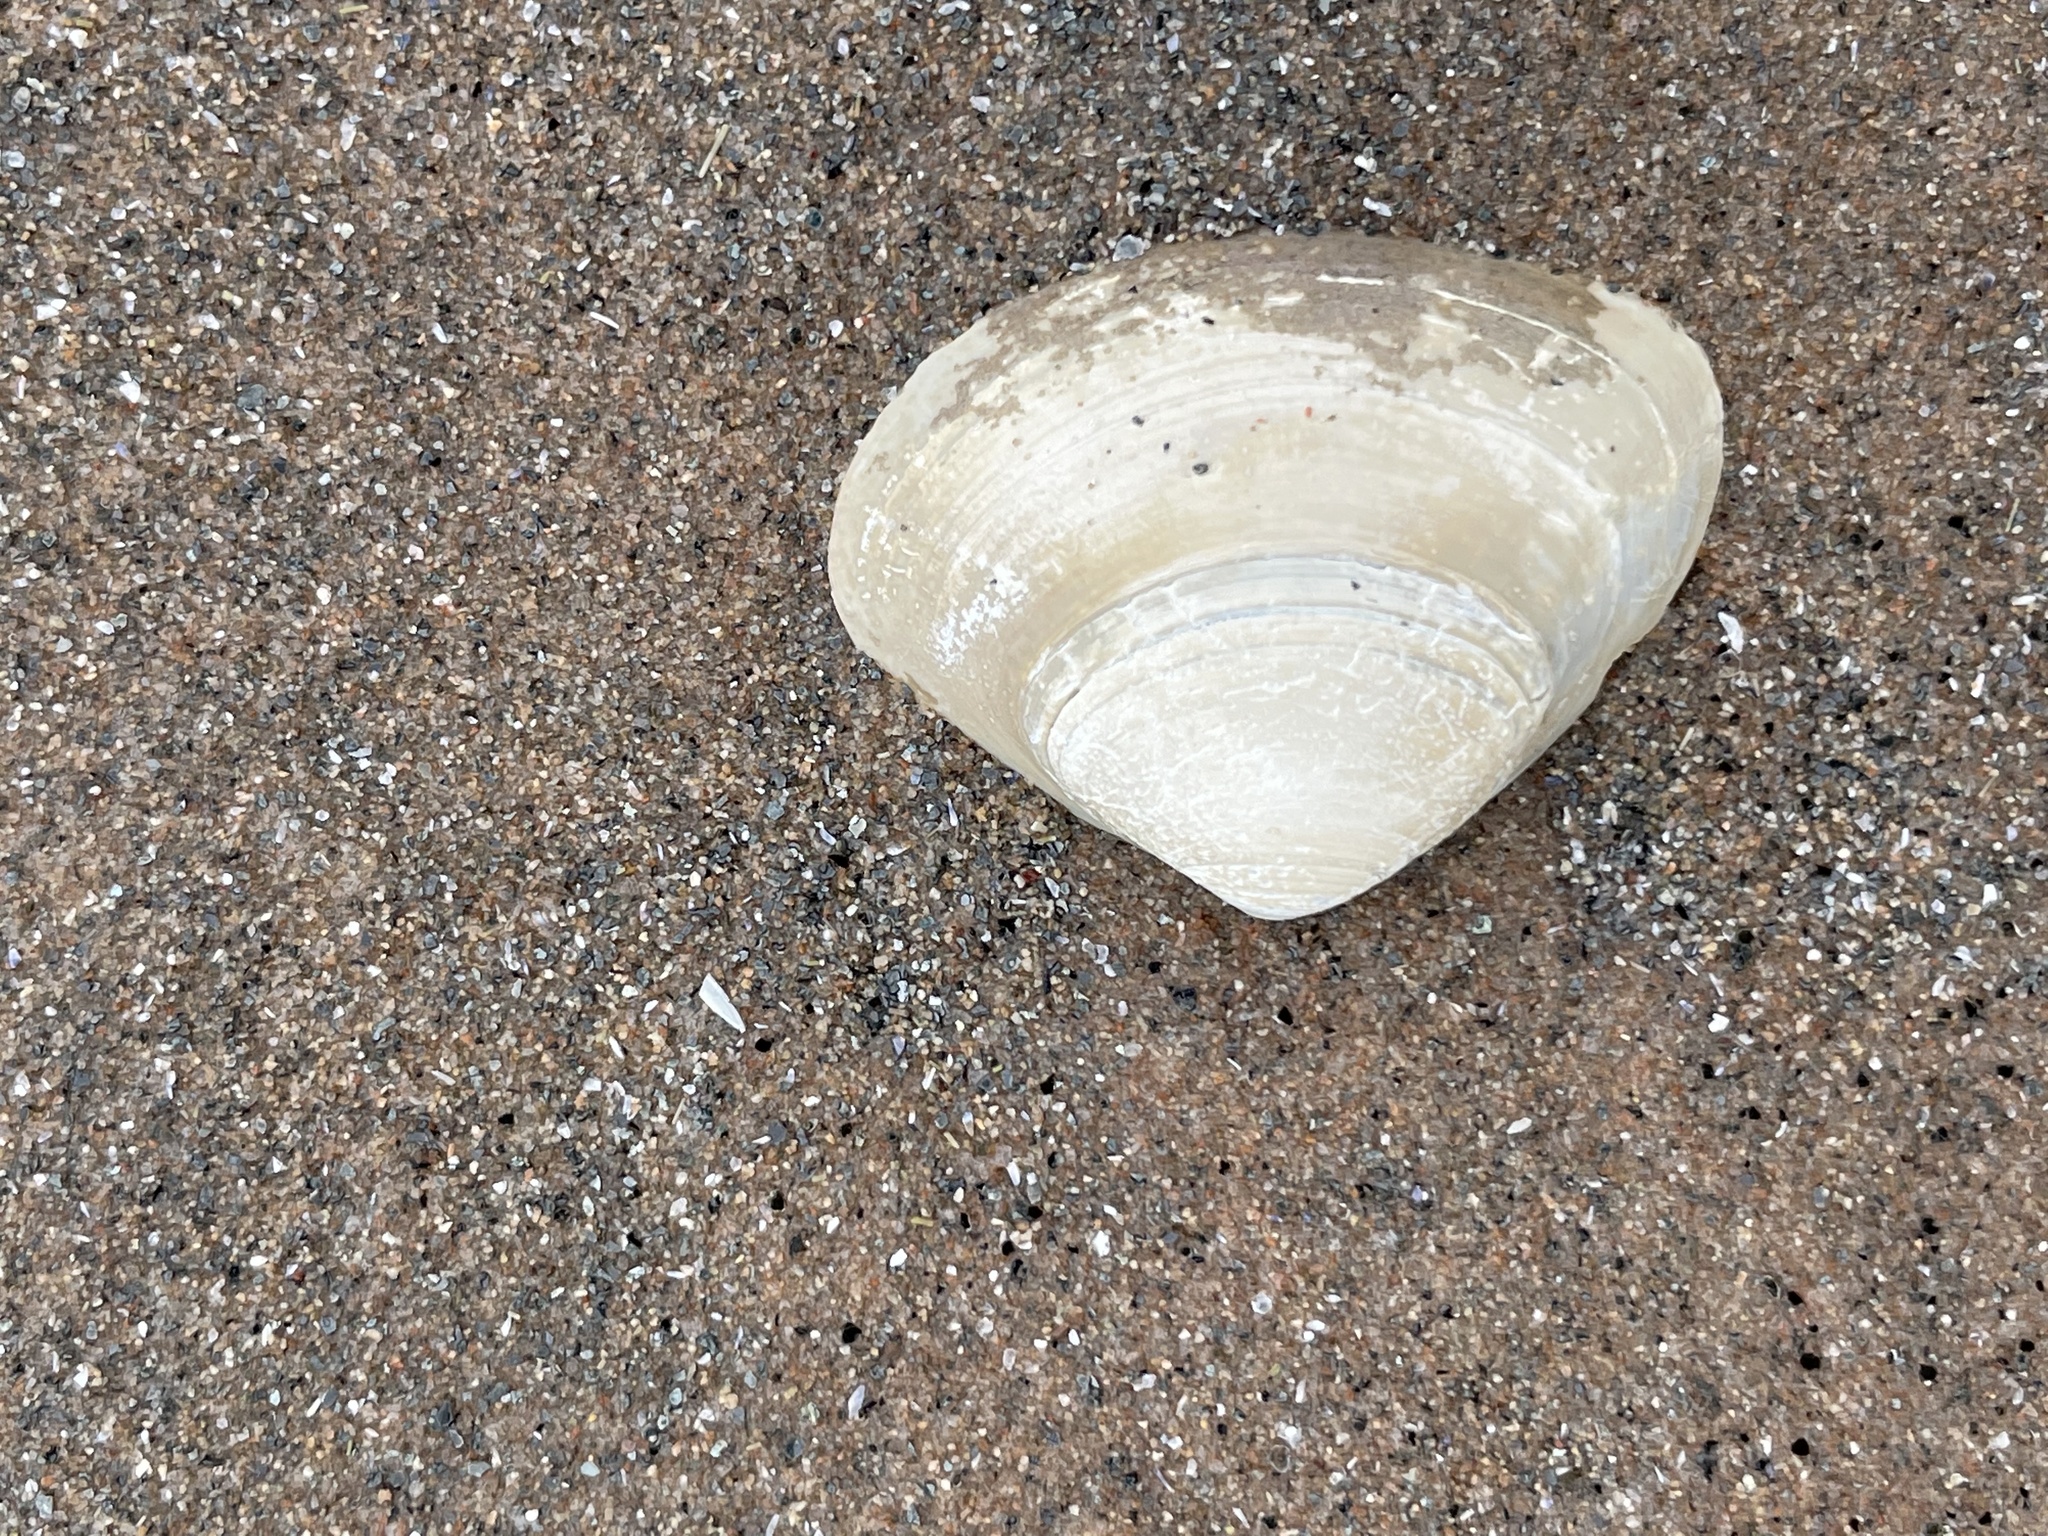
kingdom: Animalia
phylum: Mollusca
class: Bivalvia
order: Venerida
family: Mactridae
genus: Spisula
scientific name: Spisula solidissima
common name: Atlantic surf clam
